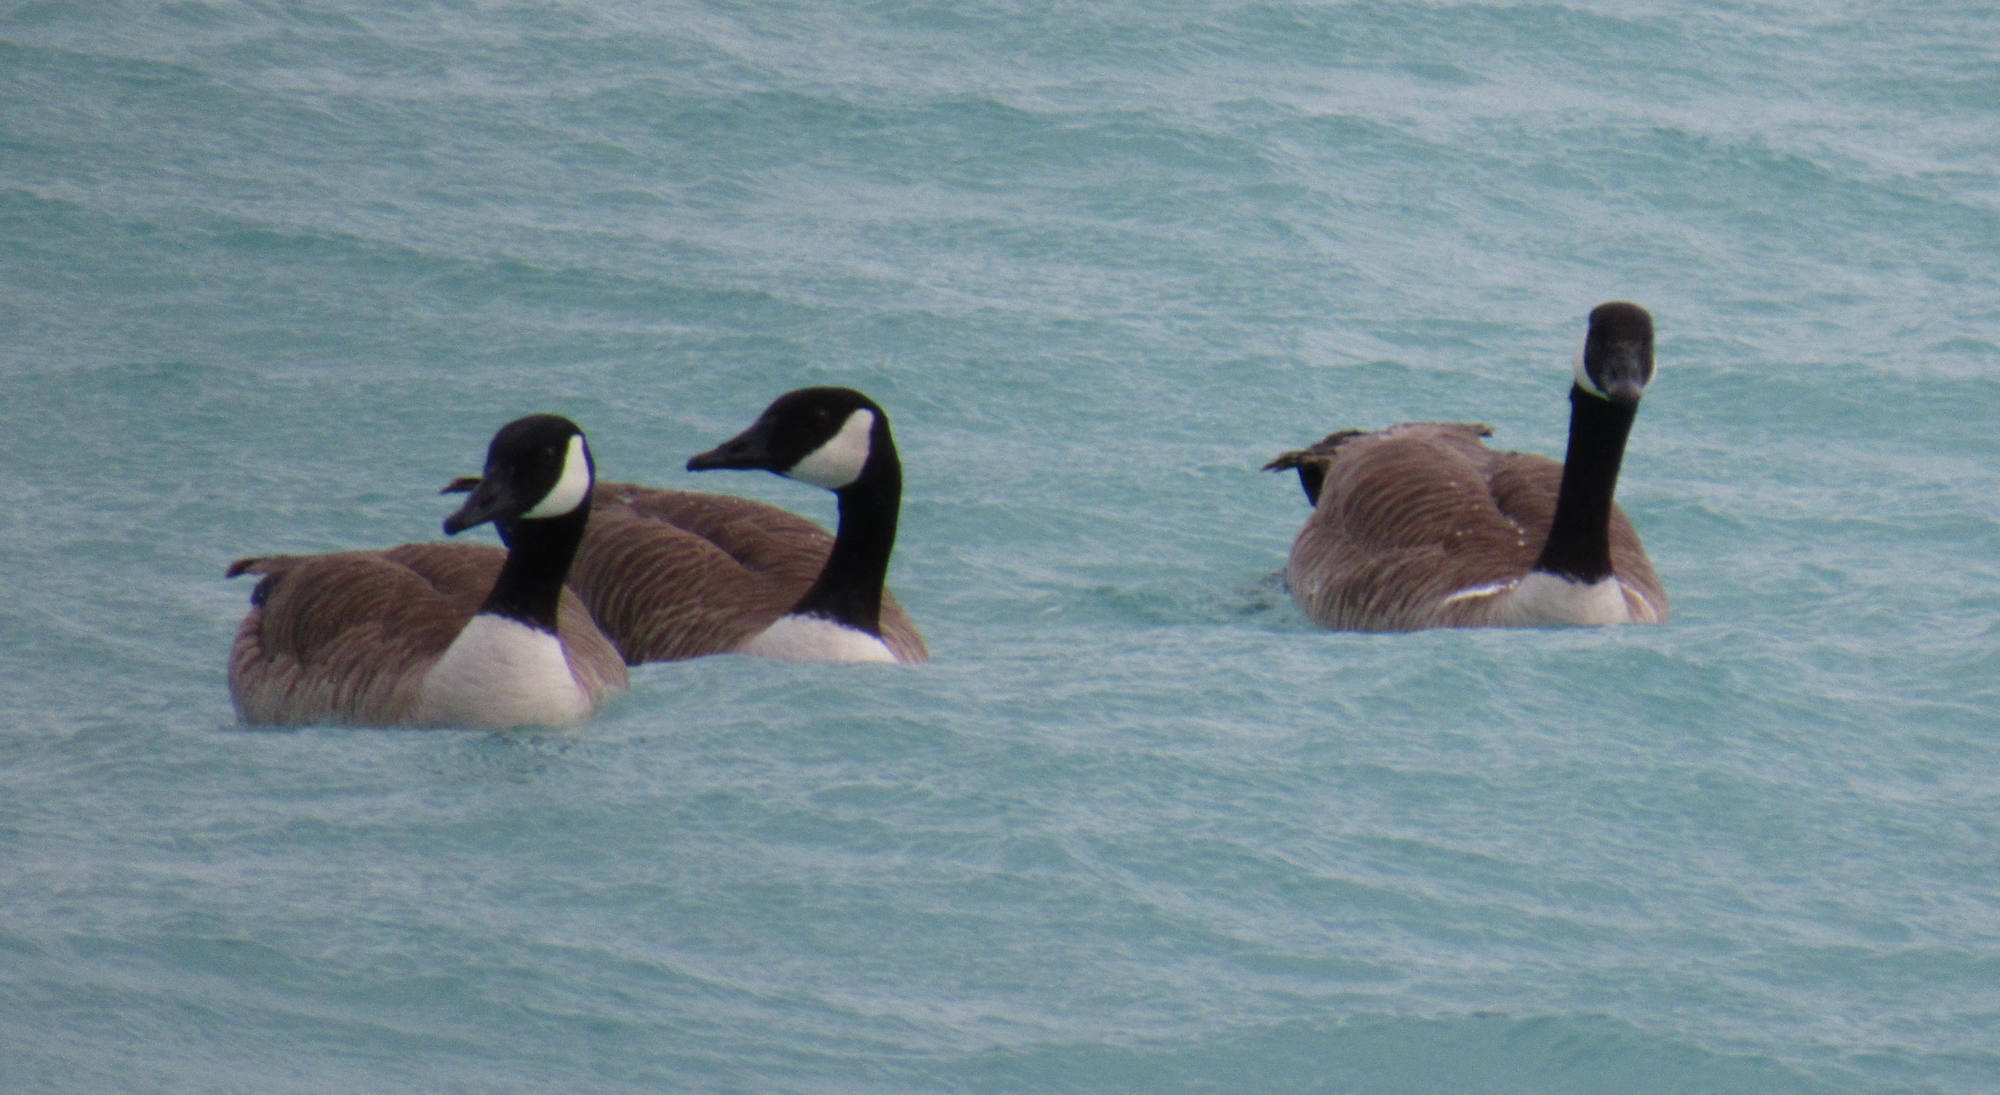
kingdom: Animalia
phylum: Chordata
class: Aves
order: Anseriformes
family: Anatidae
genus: Branta
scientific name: Branta canadensis
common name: Canada goose
